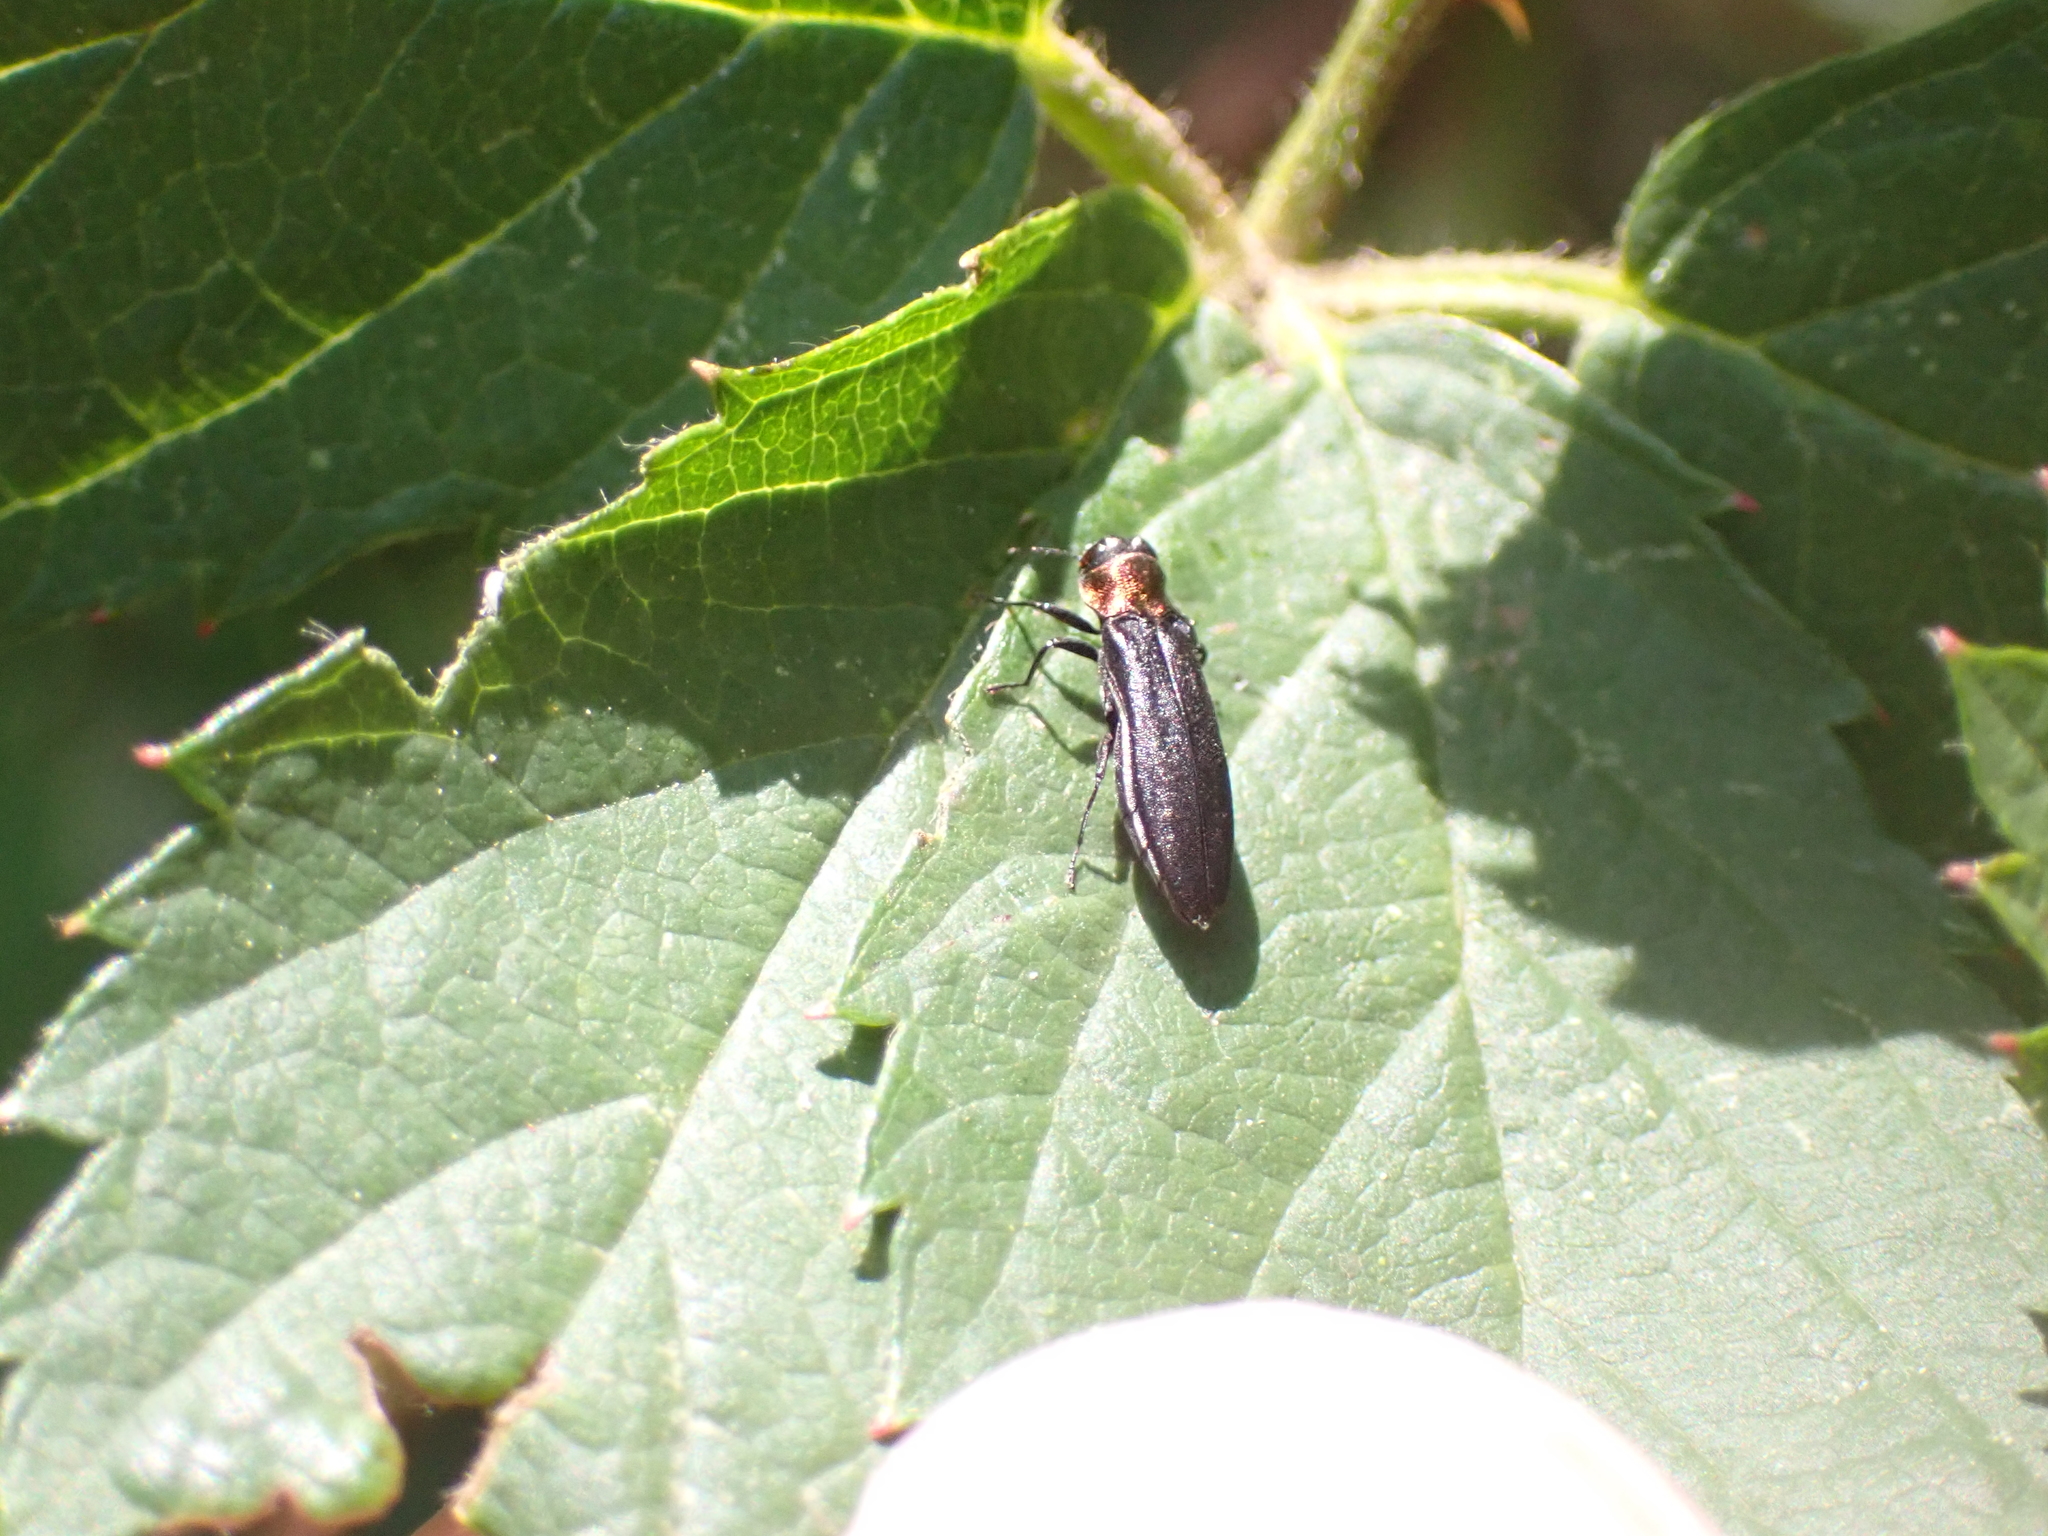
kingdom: Animalia
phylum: Arthropoda
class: Insecta
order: Coleoptera
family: Buprestidae
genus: Agrilus
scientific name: Agrilus ruficollis
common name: Red-necked cane borer beetle
